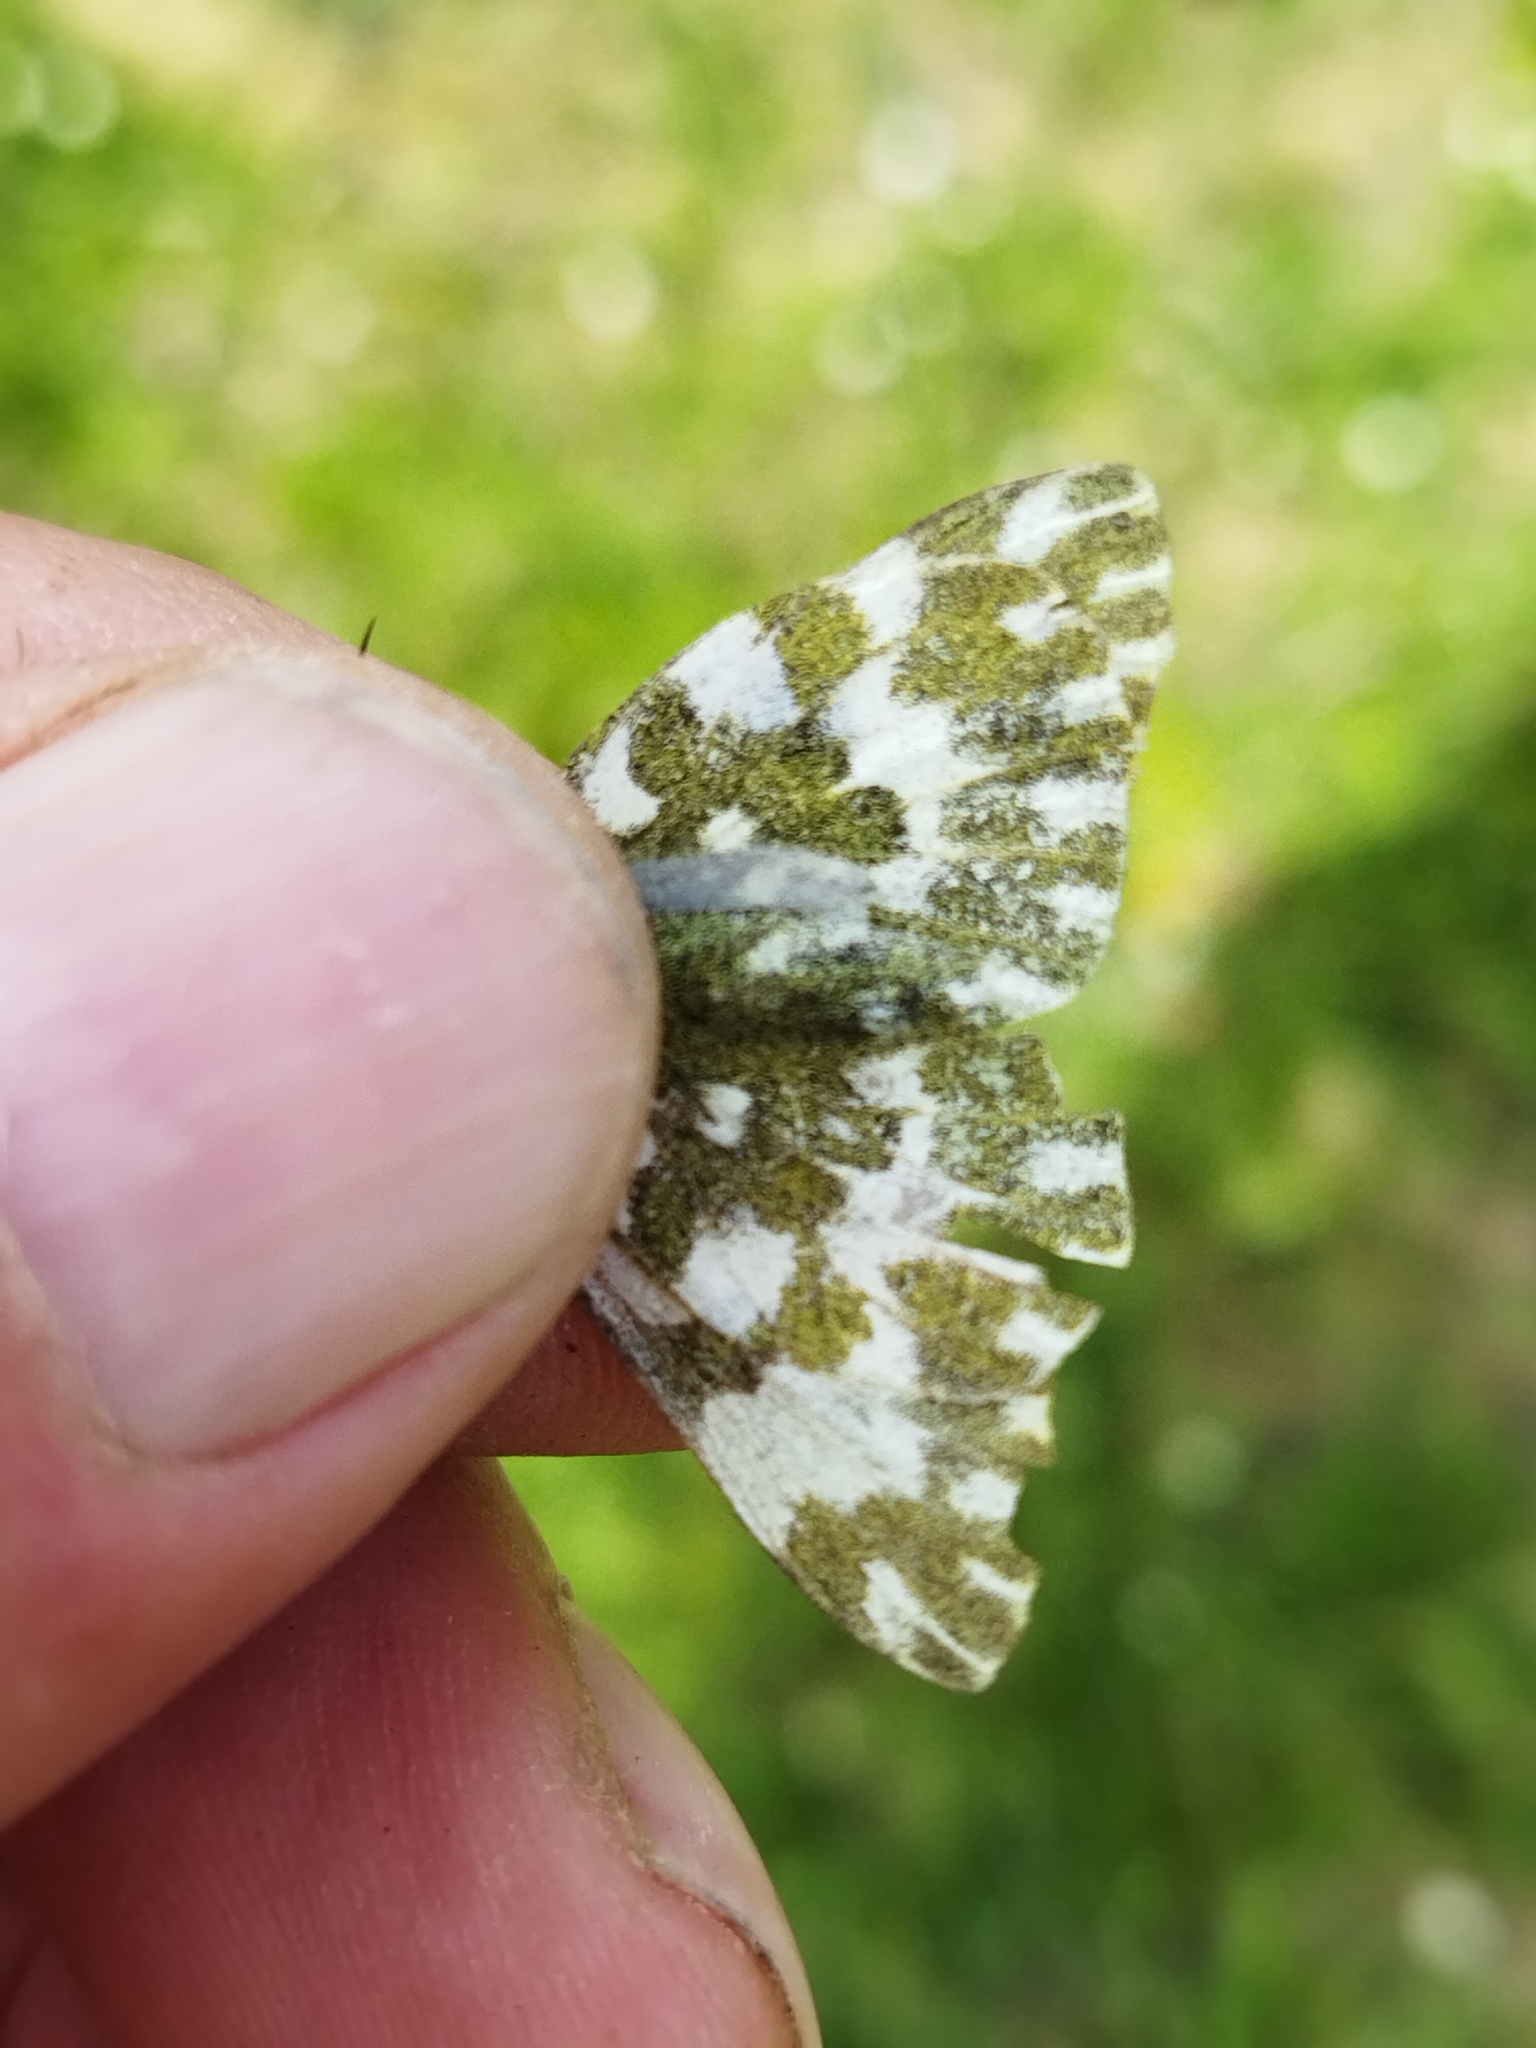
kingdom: Animalia
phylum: Arthropoda
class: Insecta
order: Lepidoptera
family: Pieridae
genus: Pontia
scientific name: Pontia edusa
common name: Eastern bath white
